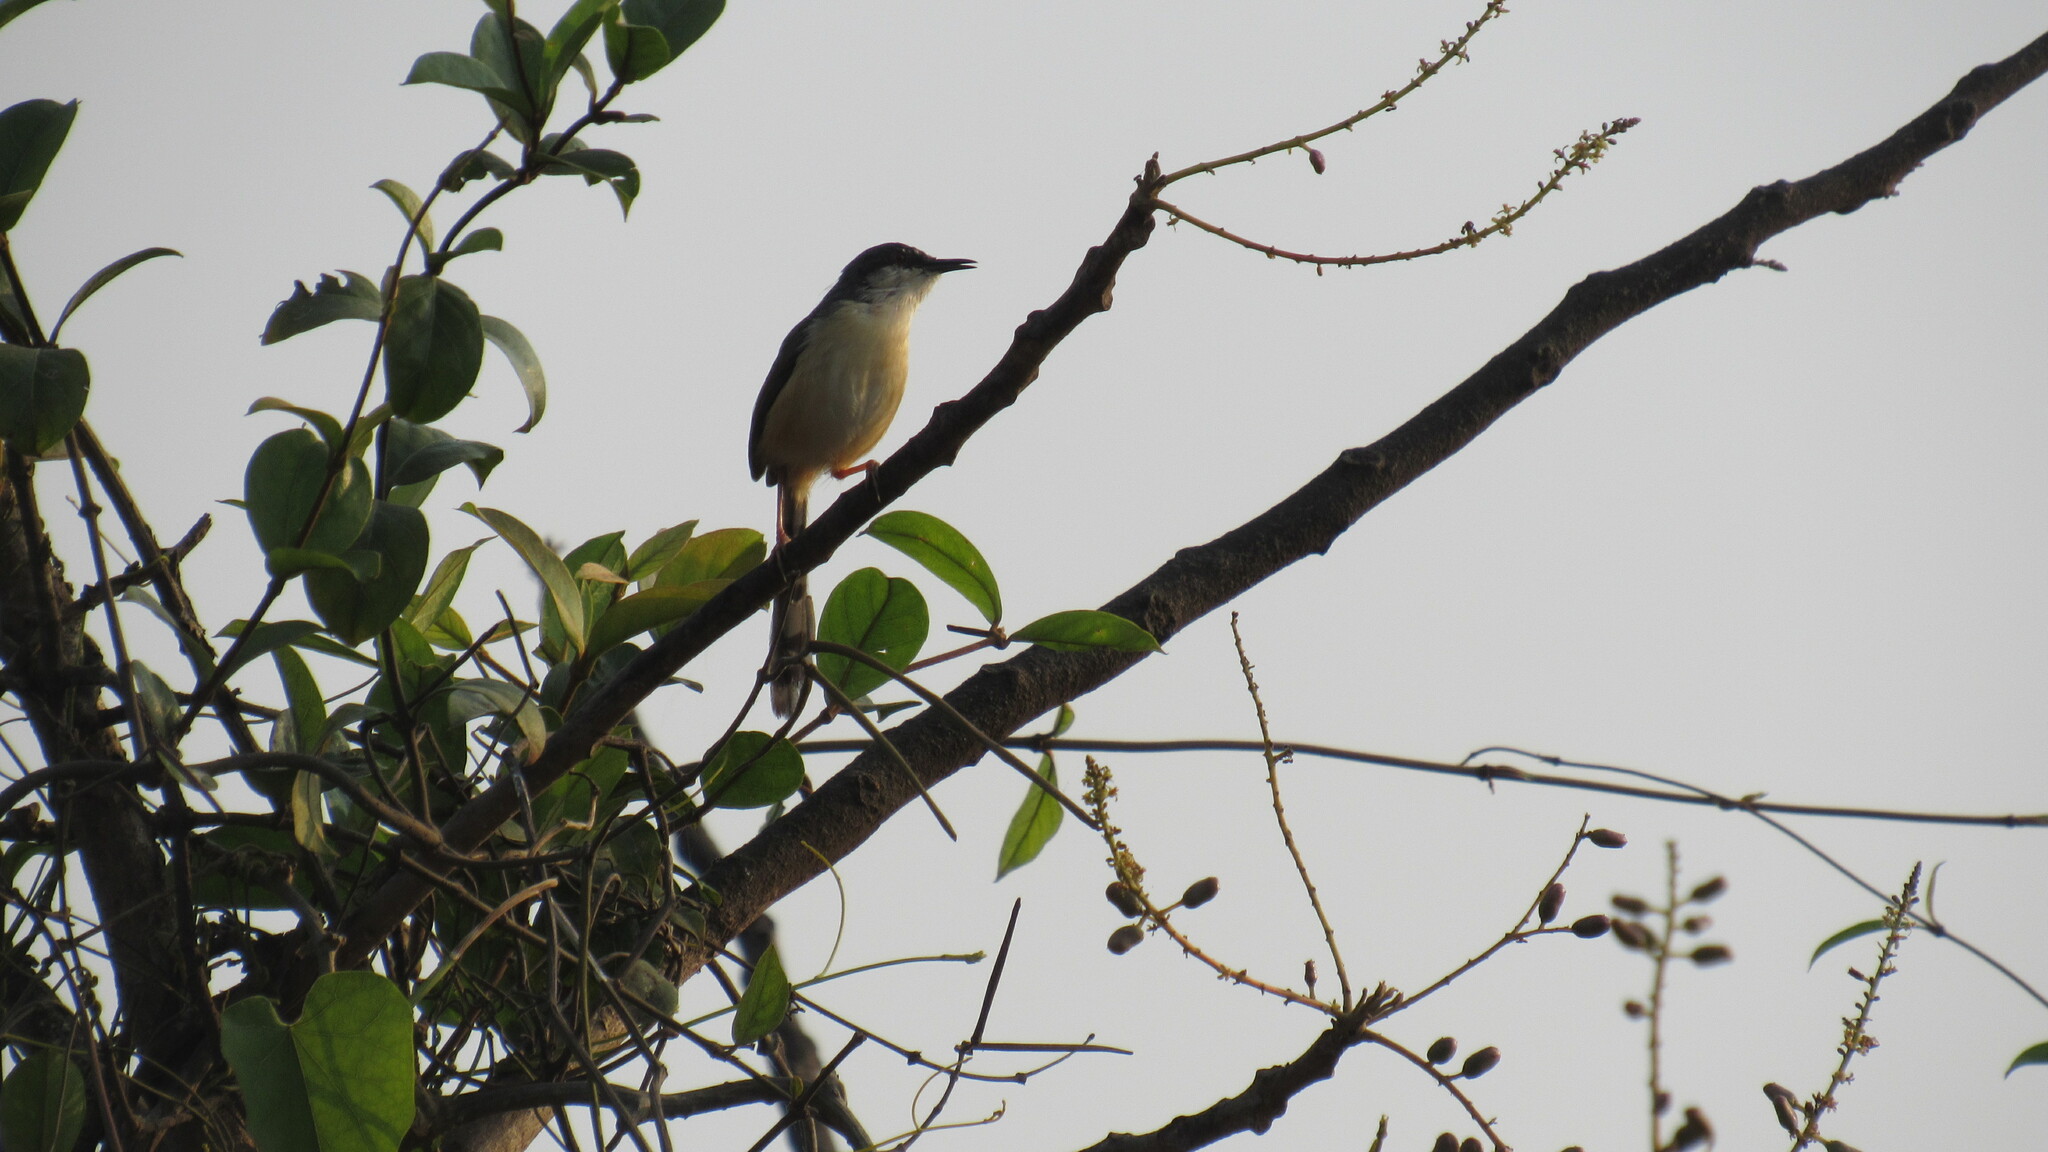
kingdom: Animalia
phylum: Chordata
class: Aves
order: Passeriformes
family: Cisticolidae
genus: Prinia
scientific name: Prinia socialis
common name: Ashy prinia
